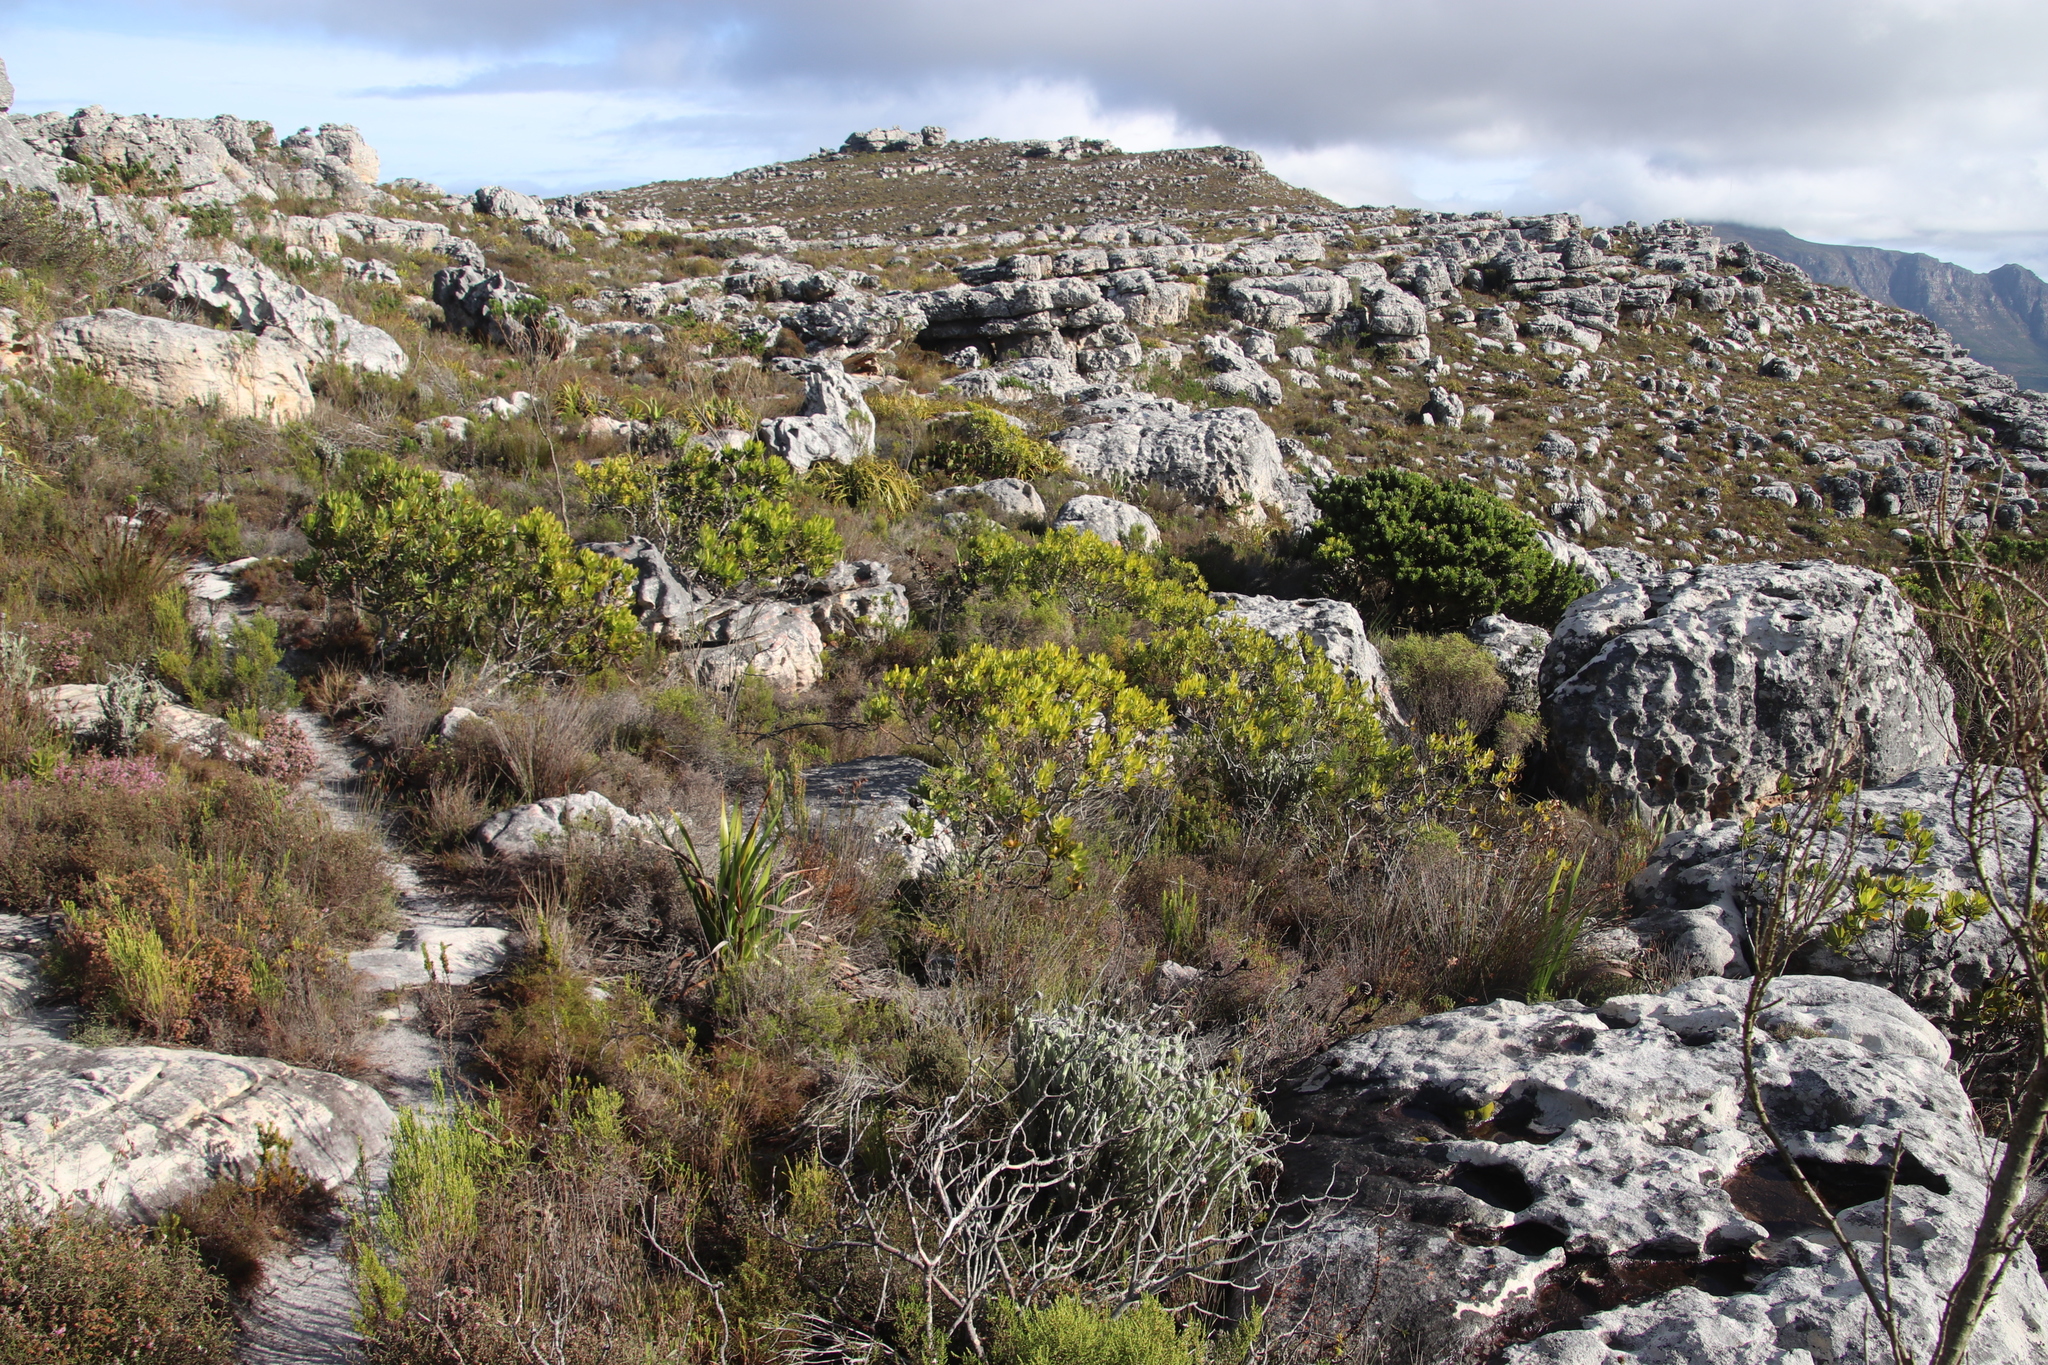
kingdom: Plantae
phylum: Tracheophyta
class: Magnoliopsida
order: Proteales
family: Proteaceae
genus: Leucadendron
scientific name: Leucadendron laureolum
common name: Golden sunshinebush
